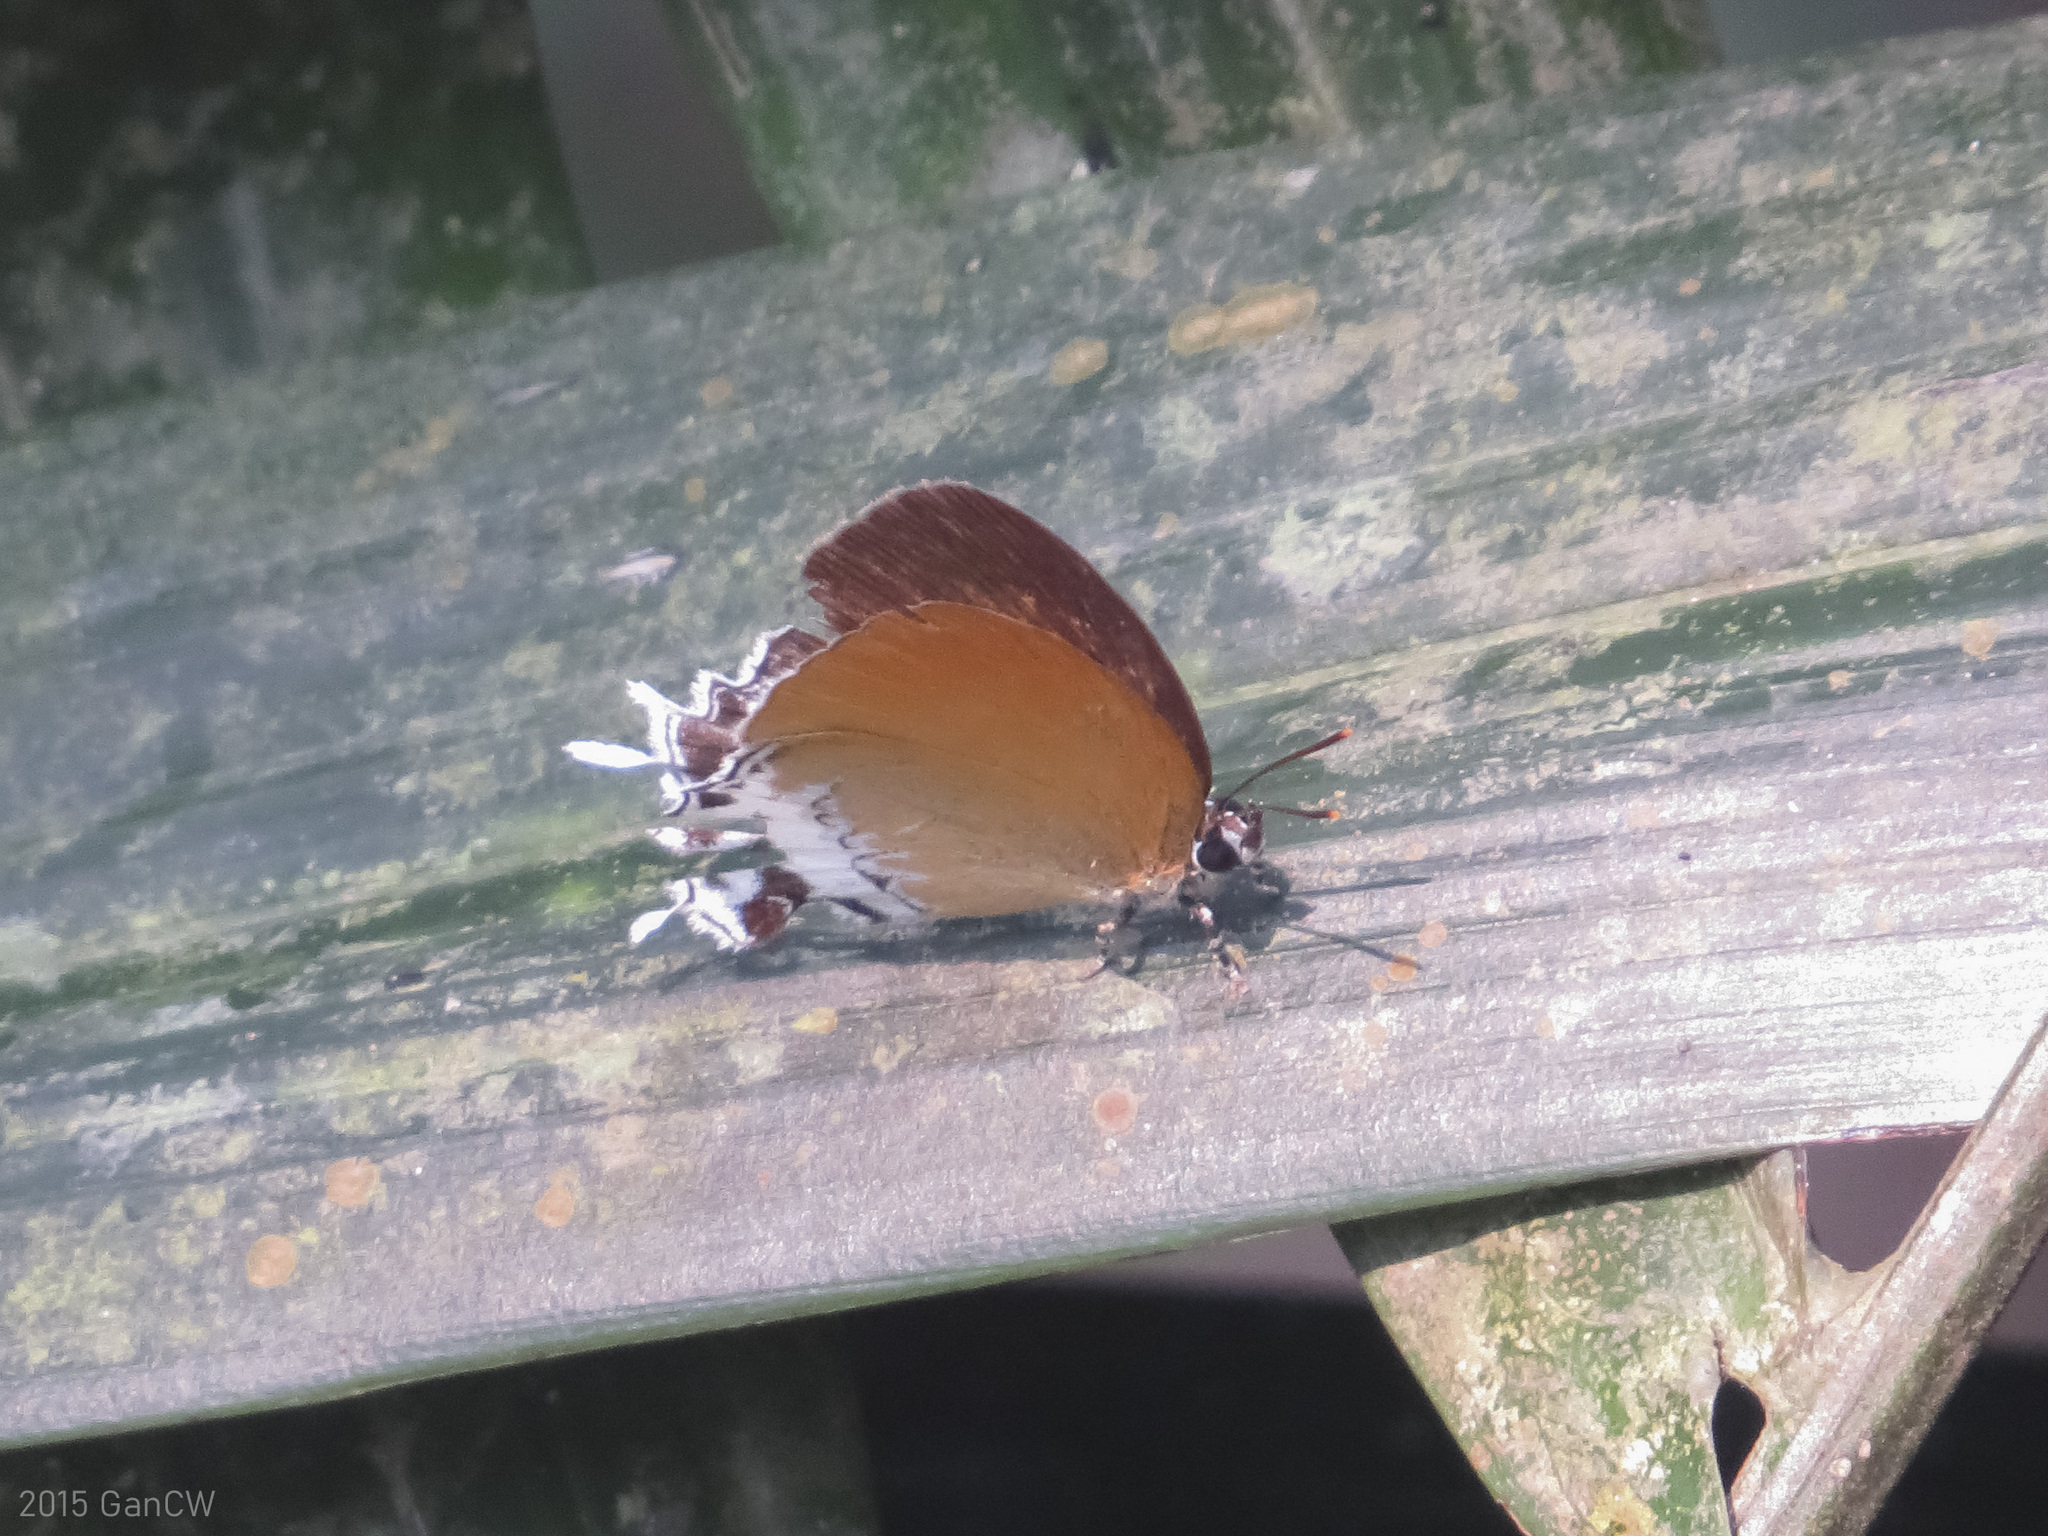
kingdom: Animalia
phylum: Arthropoda
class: Insecta
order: Lepidoptera
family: Lycaenidae
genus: Eooxylides
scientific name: Eooxylides tharis
